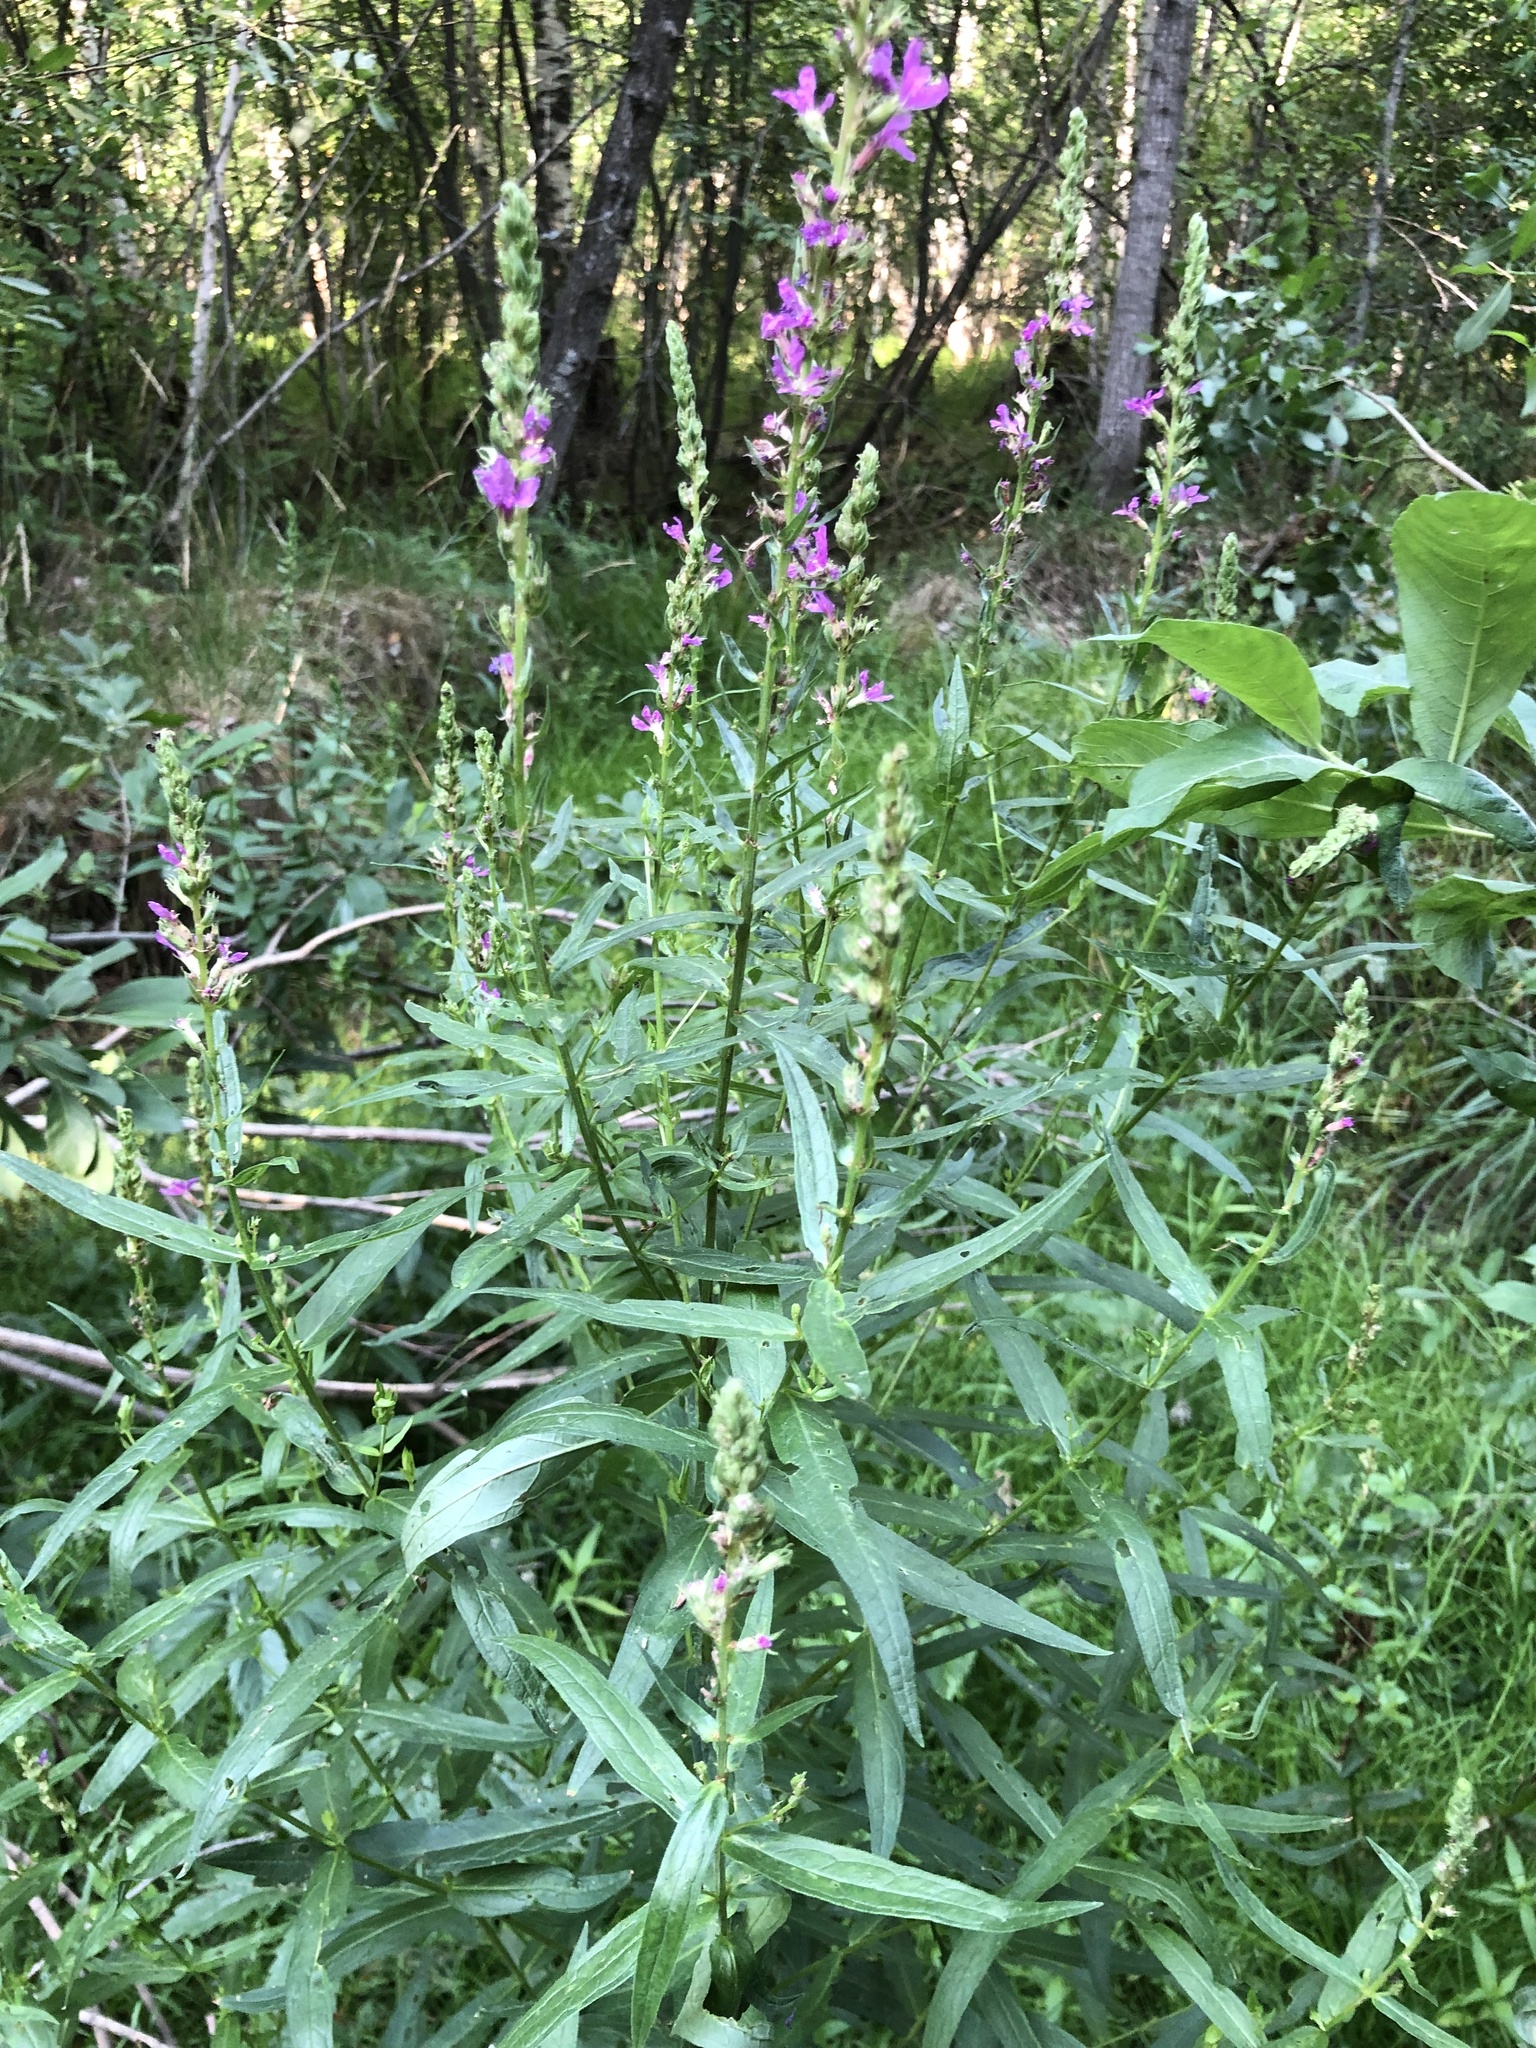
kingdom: Plantae
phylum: Tracheophyta
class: Magnoliopsida
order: Myrtales
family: Lythraceae
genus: Lythrum
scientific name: Lythrum salicaria
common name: Purple loosestrife
